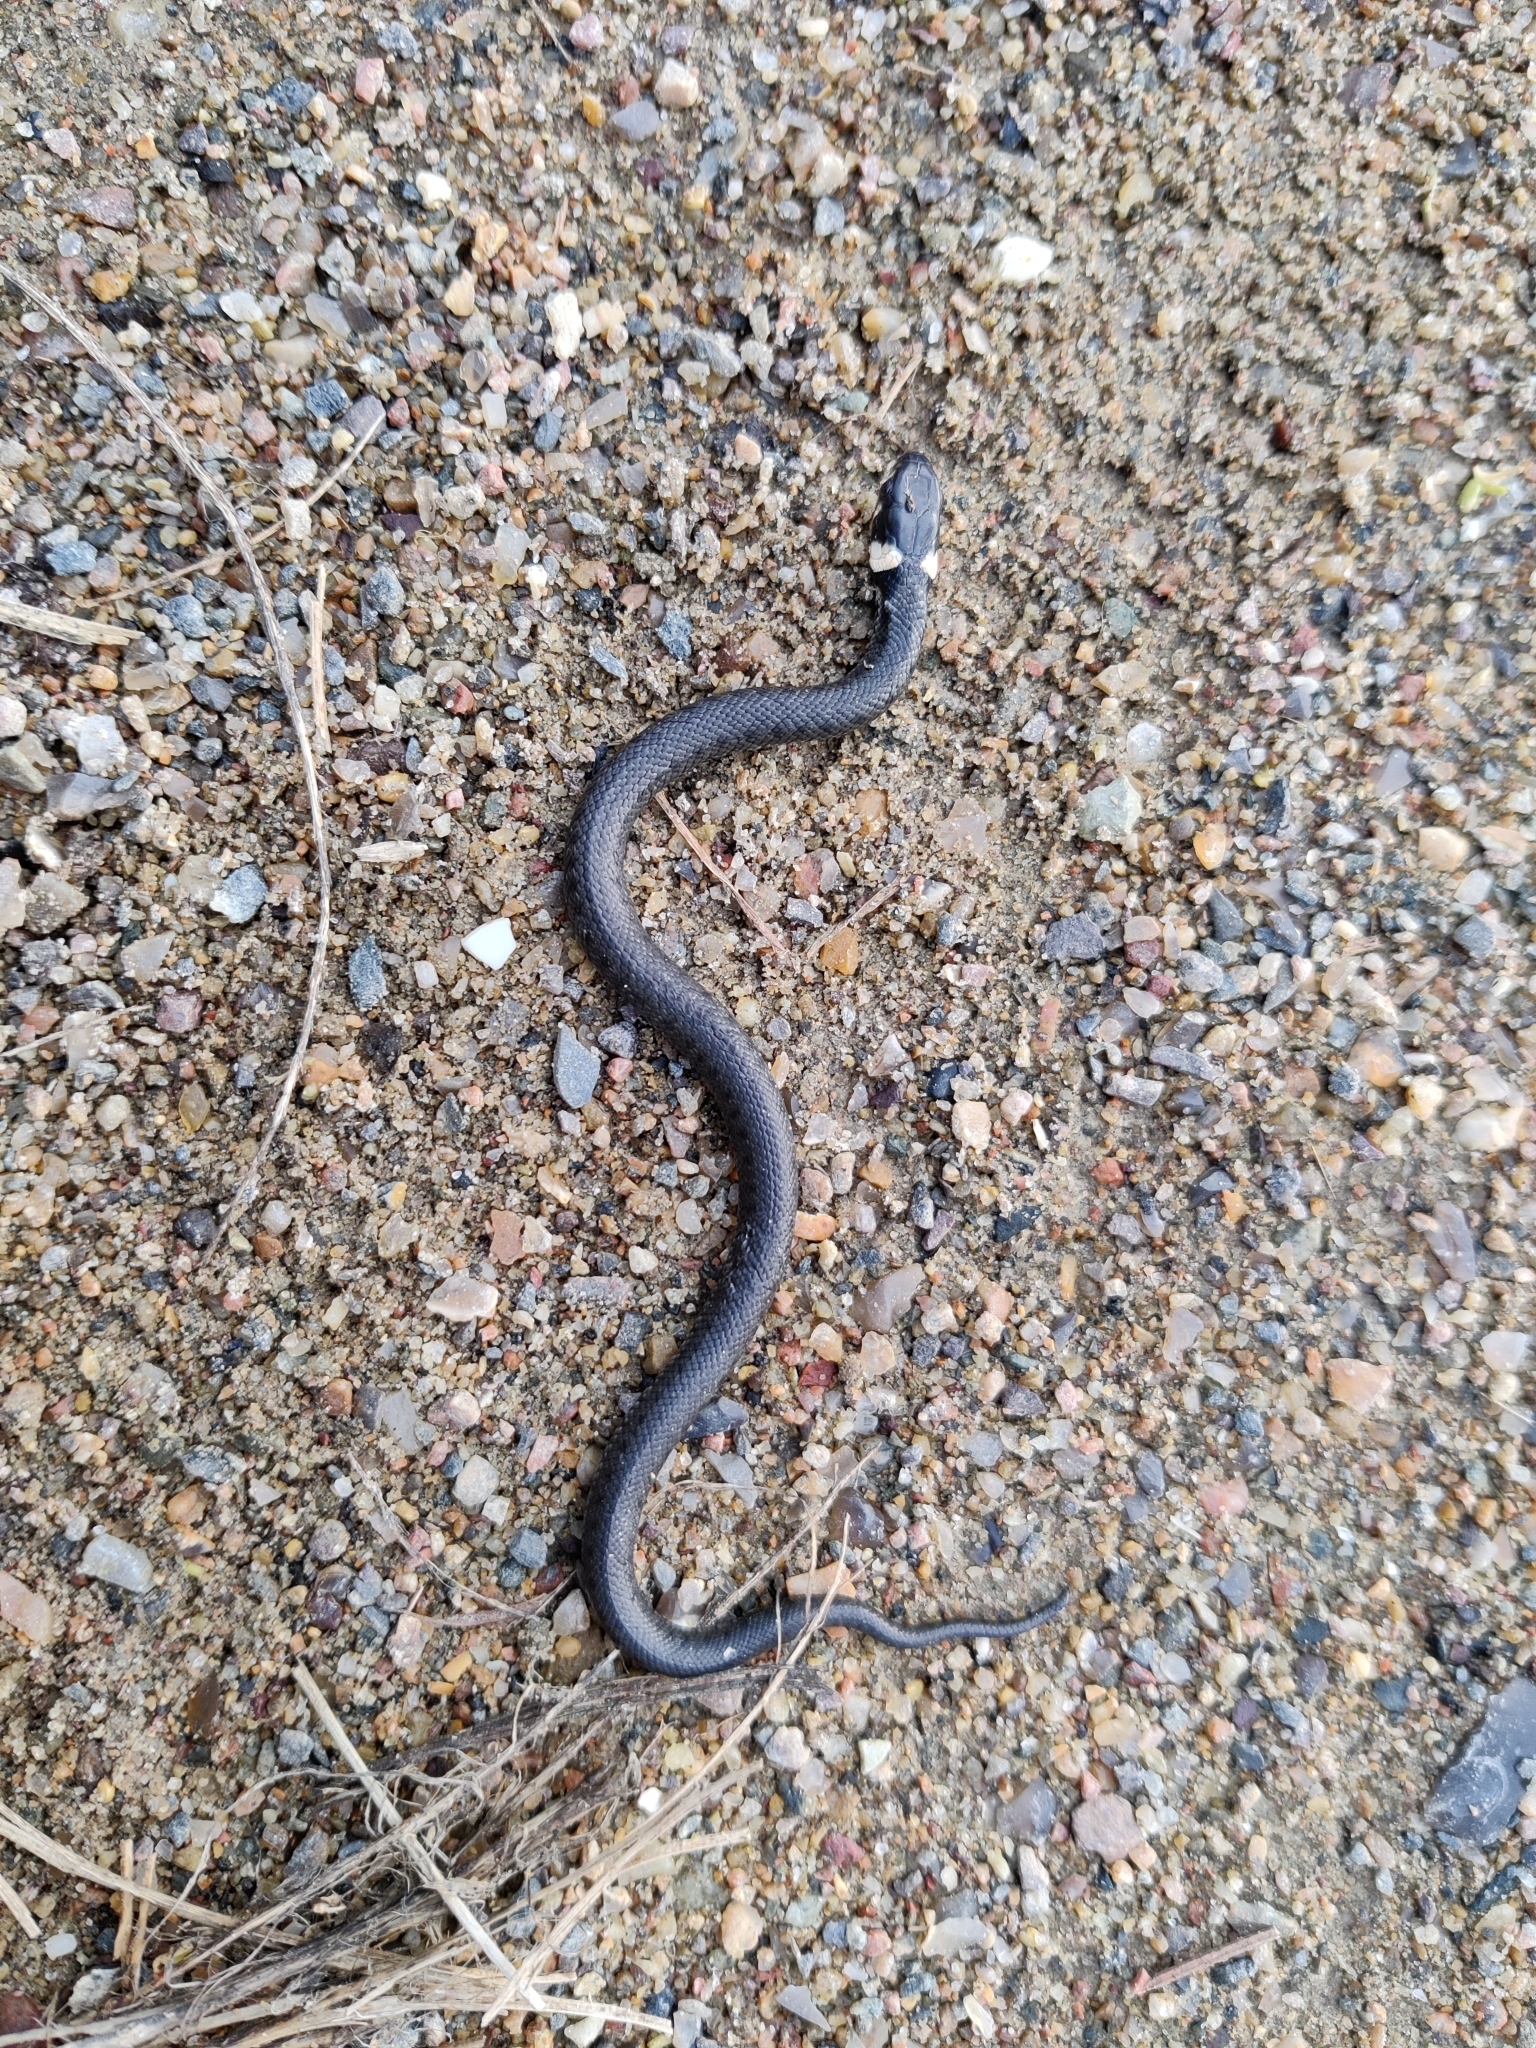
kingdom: Animalia
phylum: Chordata
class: Squamata
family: Colubridae
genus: Natrix
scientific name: Natrix natrix
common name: Grass snake
